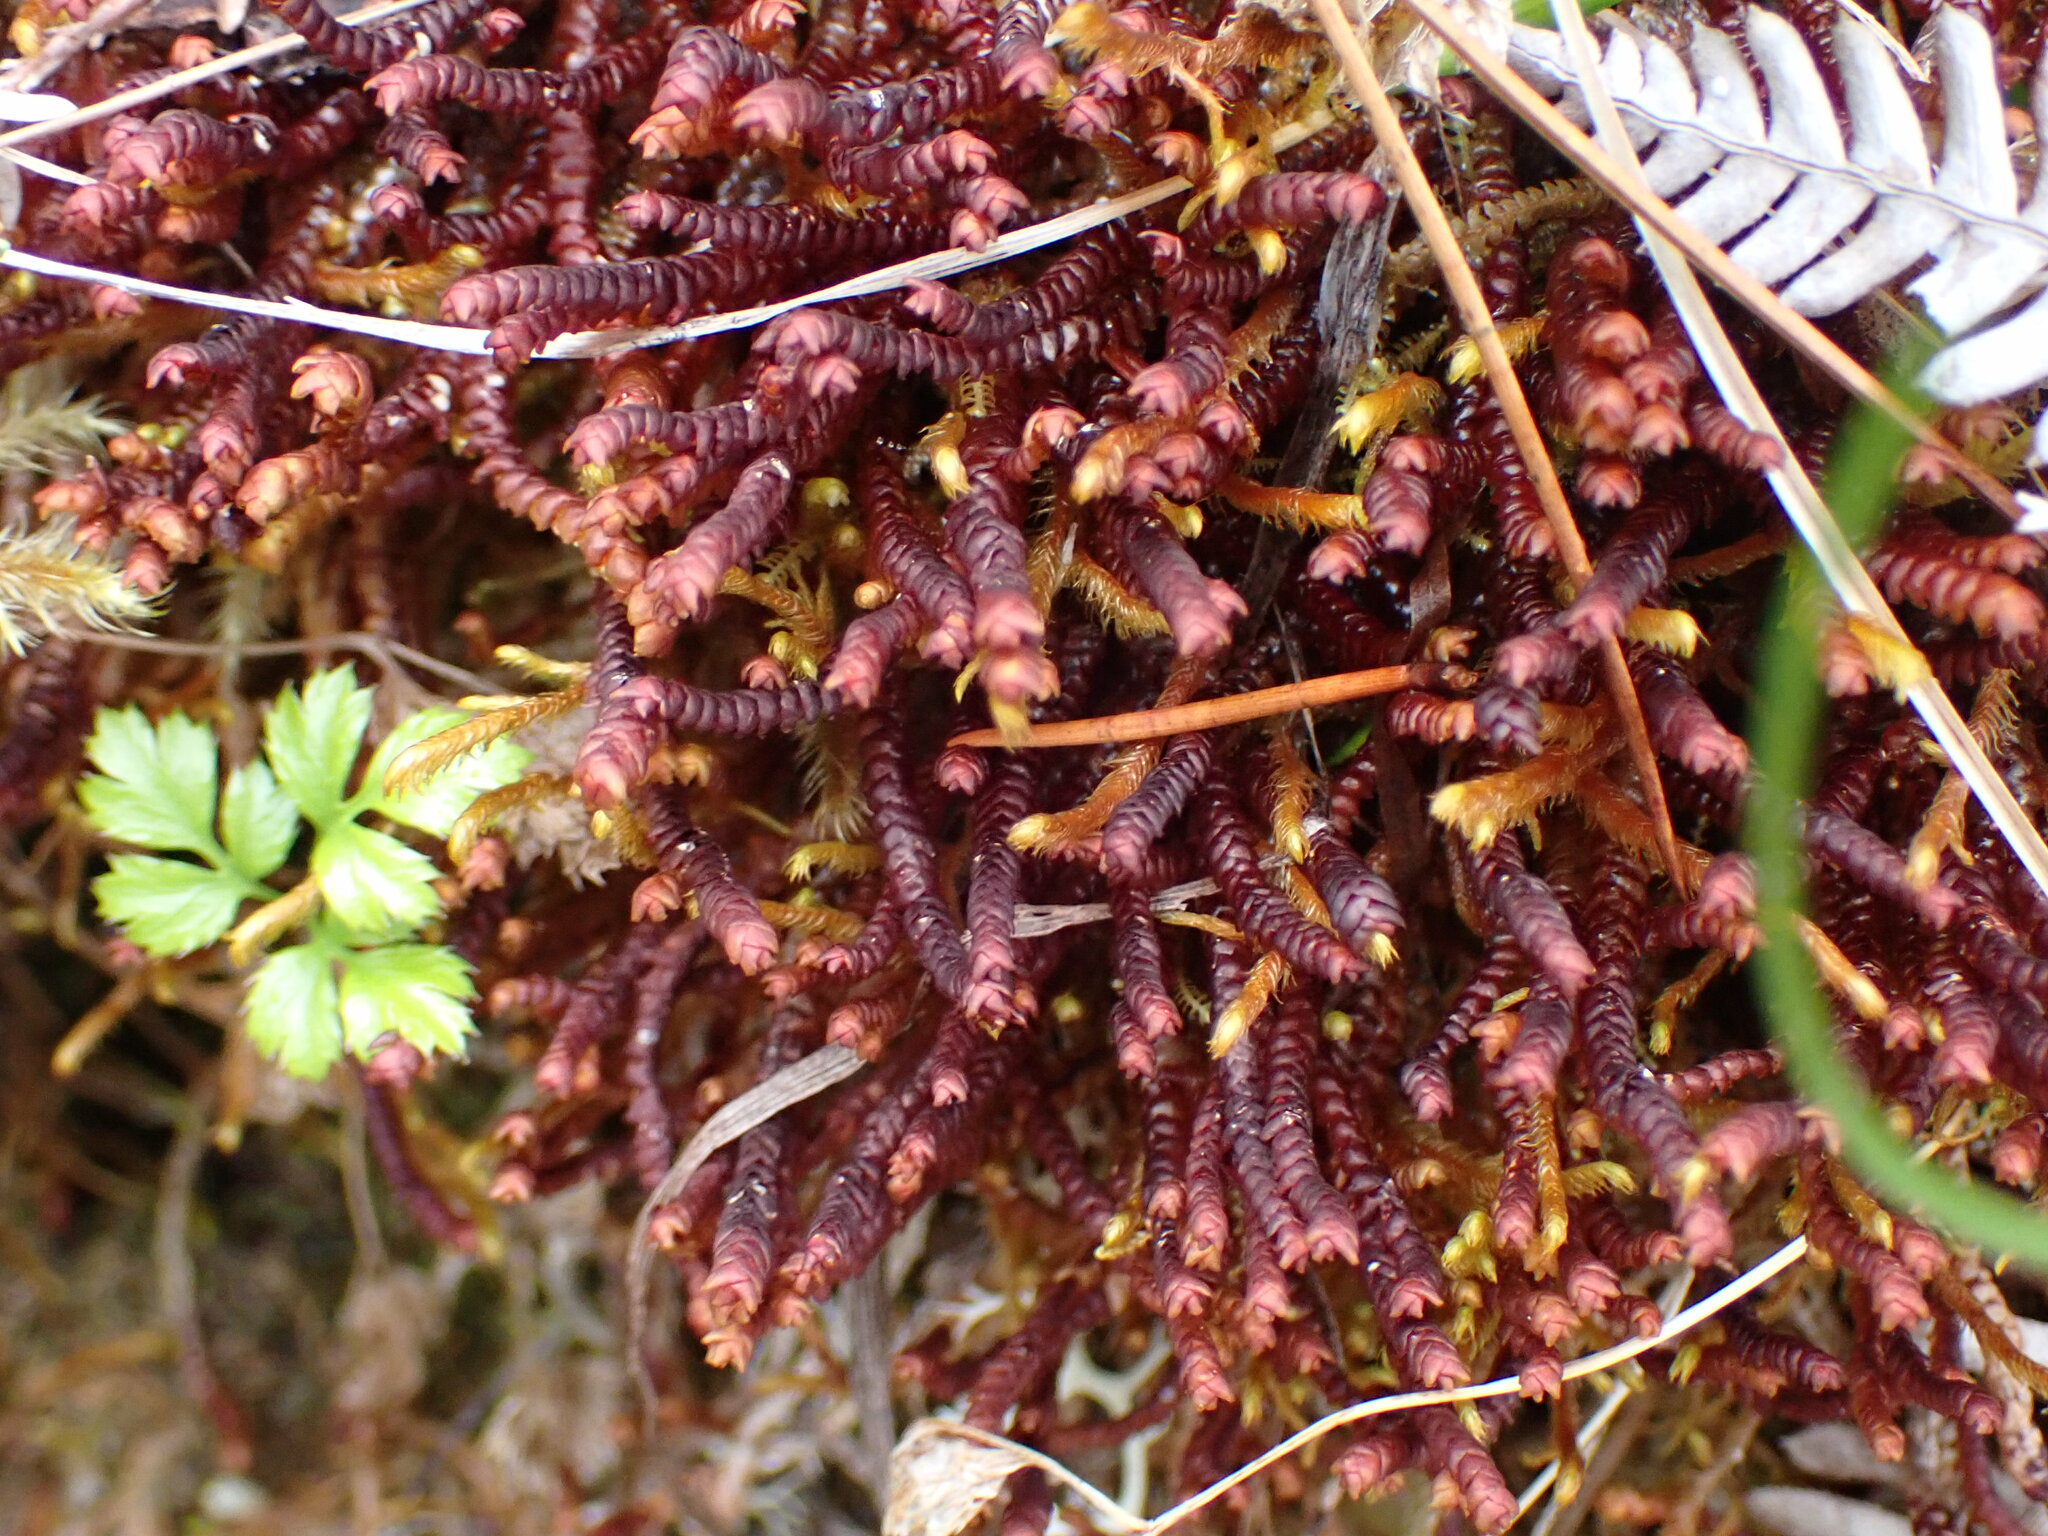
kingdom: Plantae
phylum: Marchantiophyta
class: Jungermanniopsida
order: Pleuroziales
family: Pleuroziaceae
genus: Pleurozia
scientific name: Pleurozia purpurea
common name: Purple spoonwort
